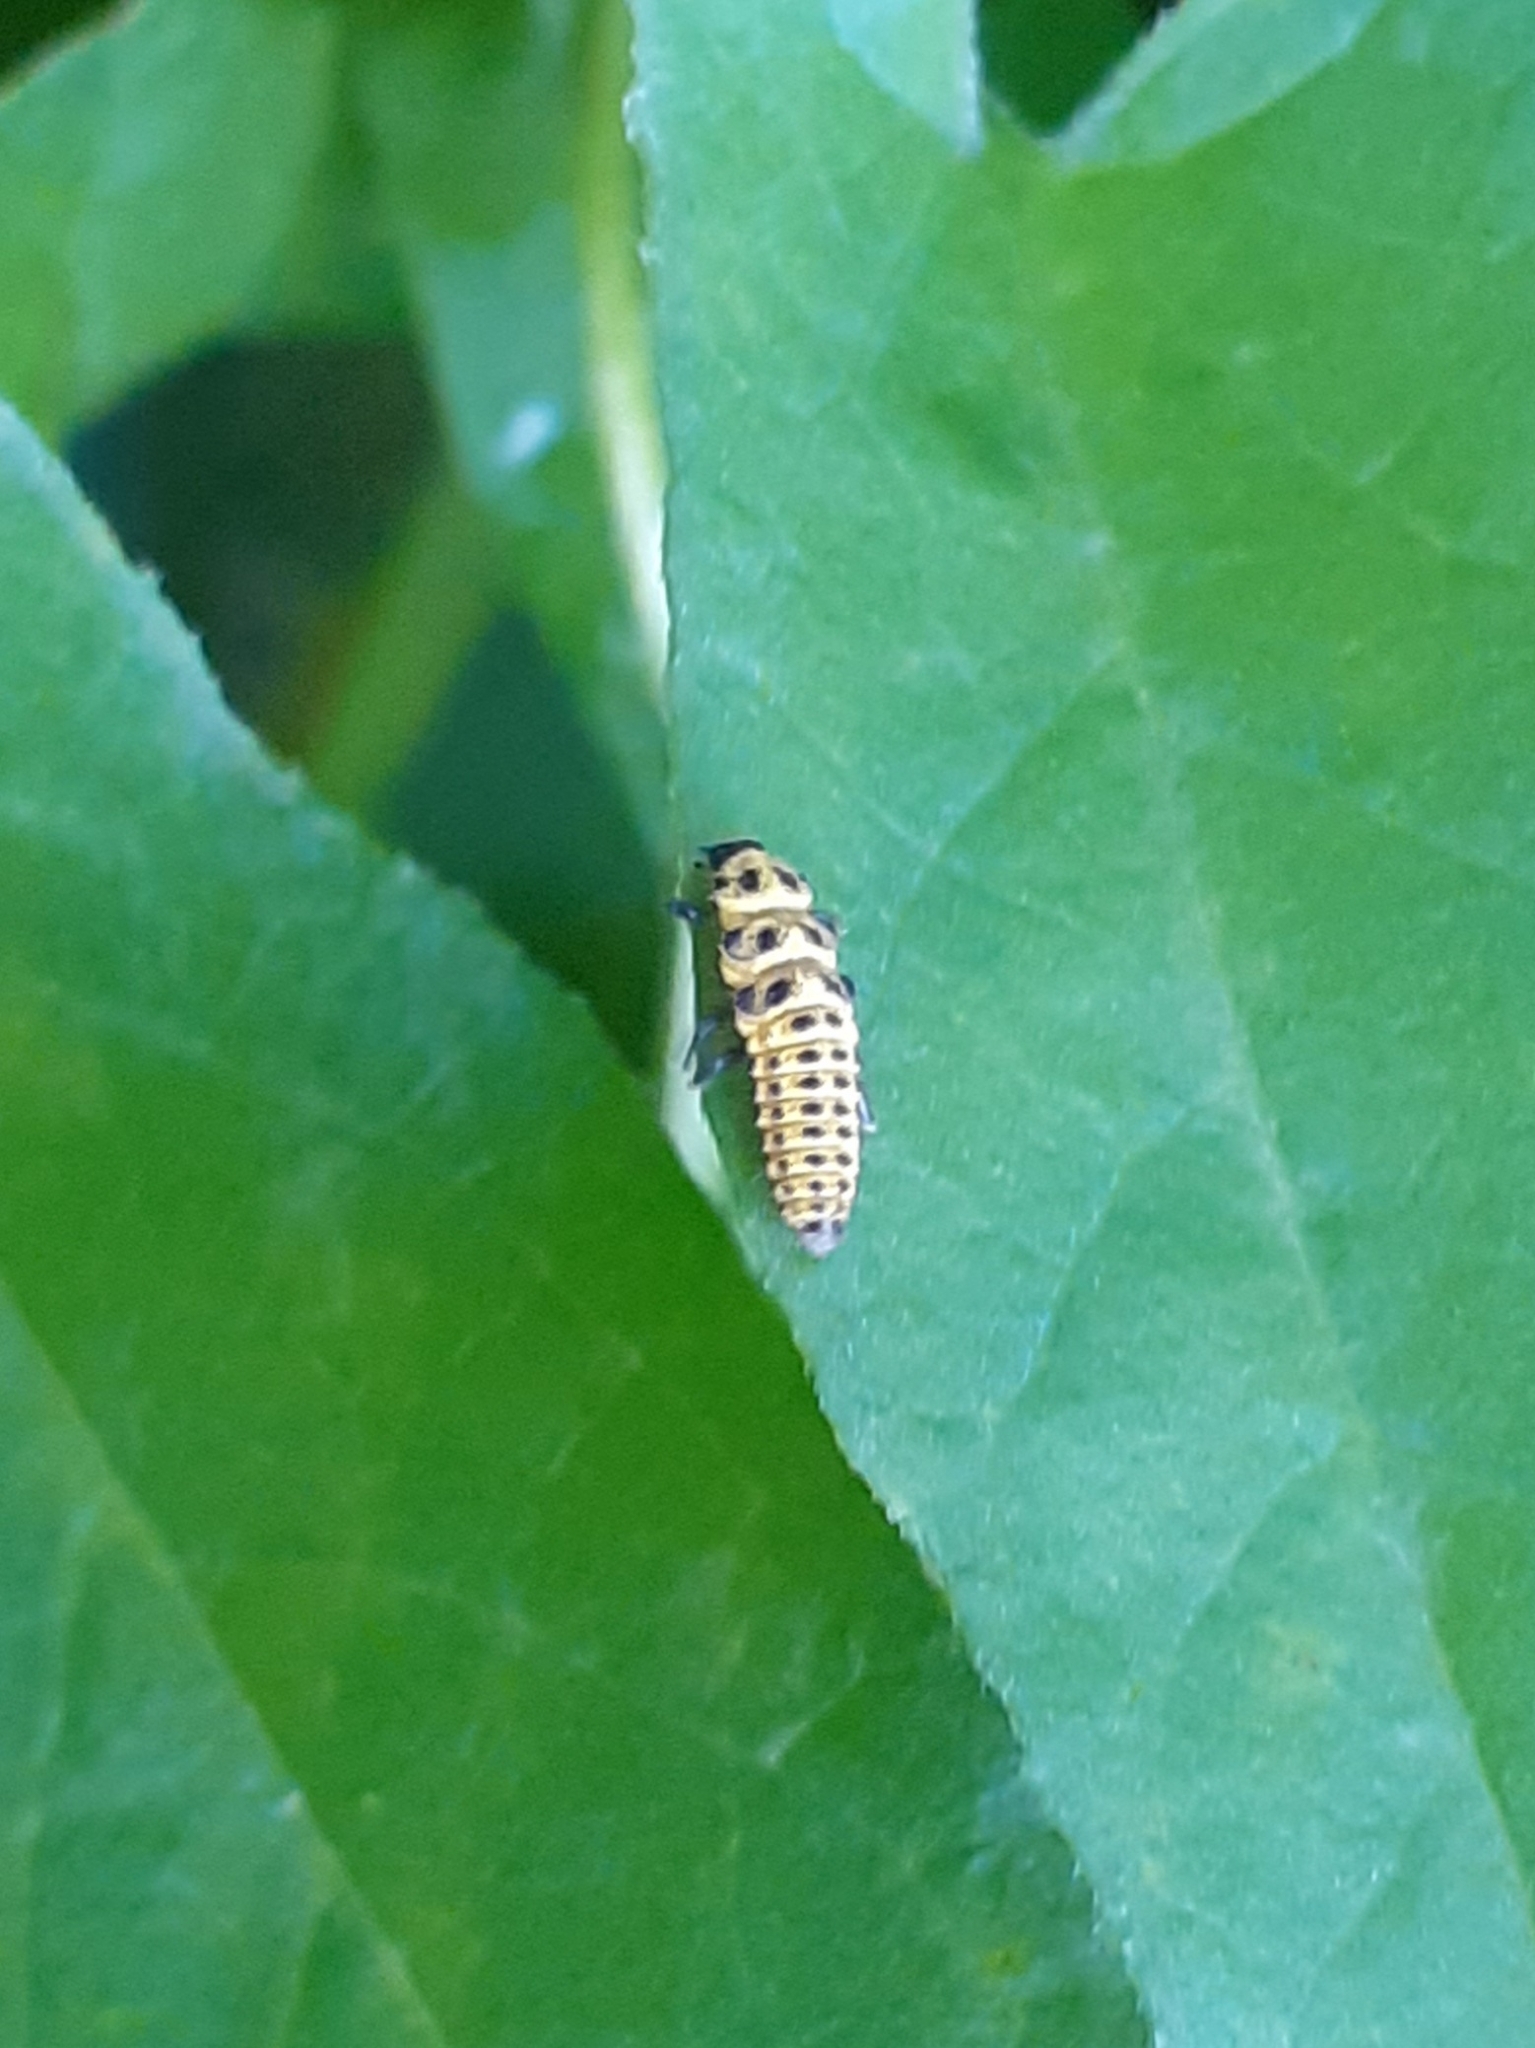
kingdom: Animalia
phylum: Arthropoda
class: Insecta
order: Coleoptera
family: Coccinellidae
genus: Psyllobora
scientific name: Psyllobora vigintiduopunctata
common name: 22-spot ladybird
